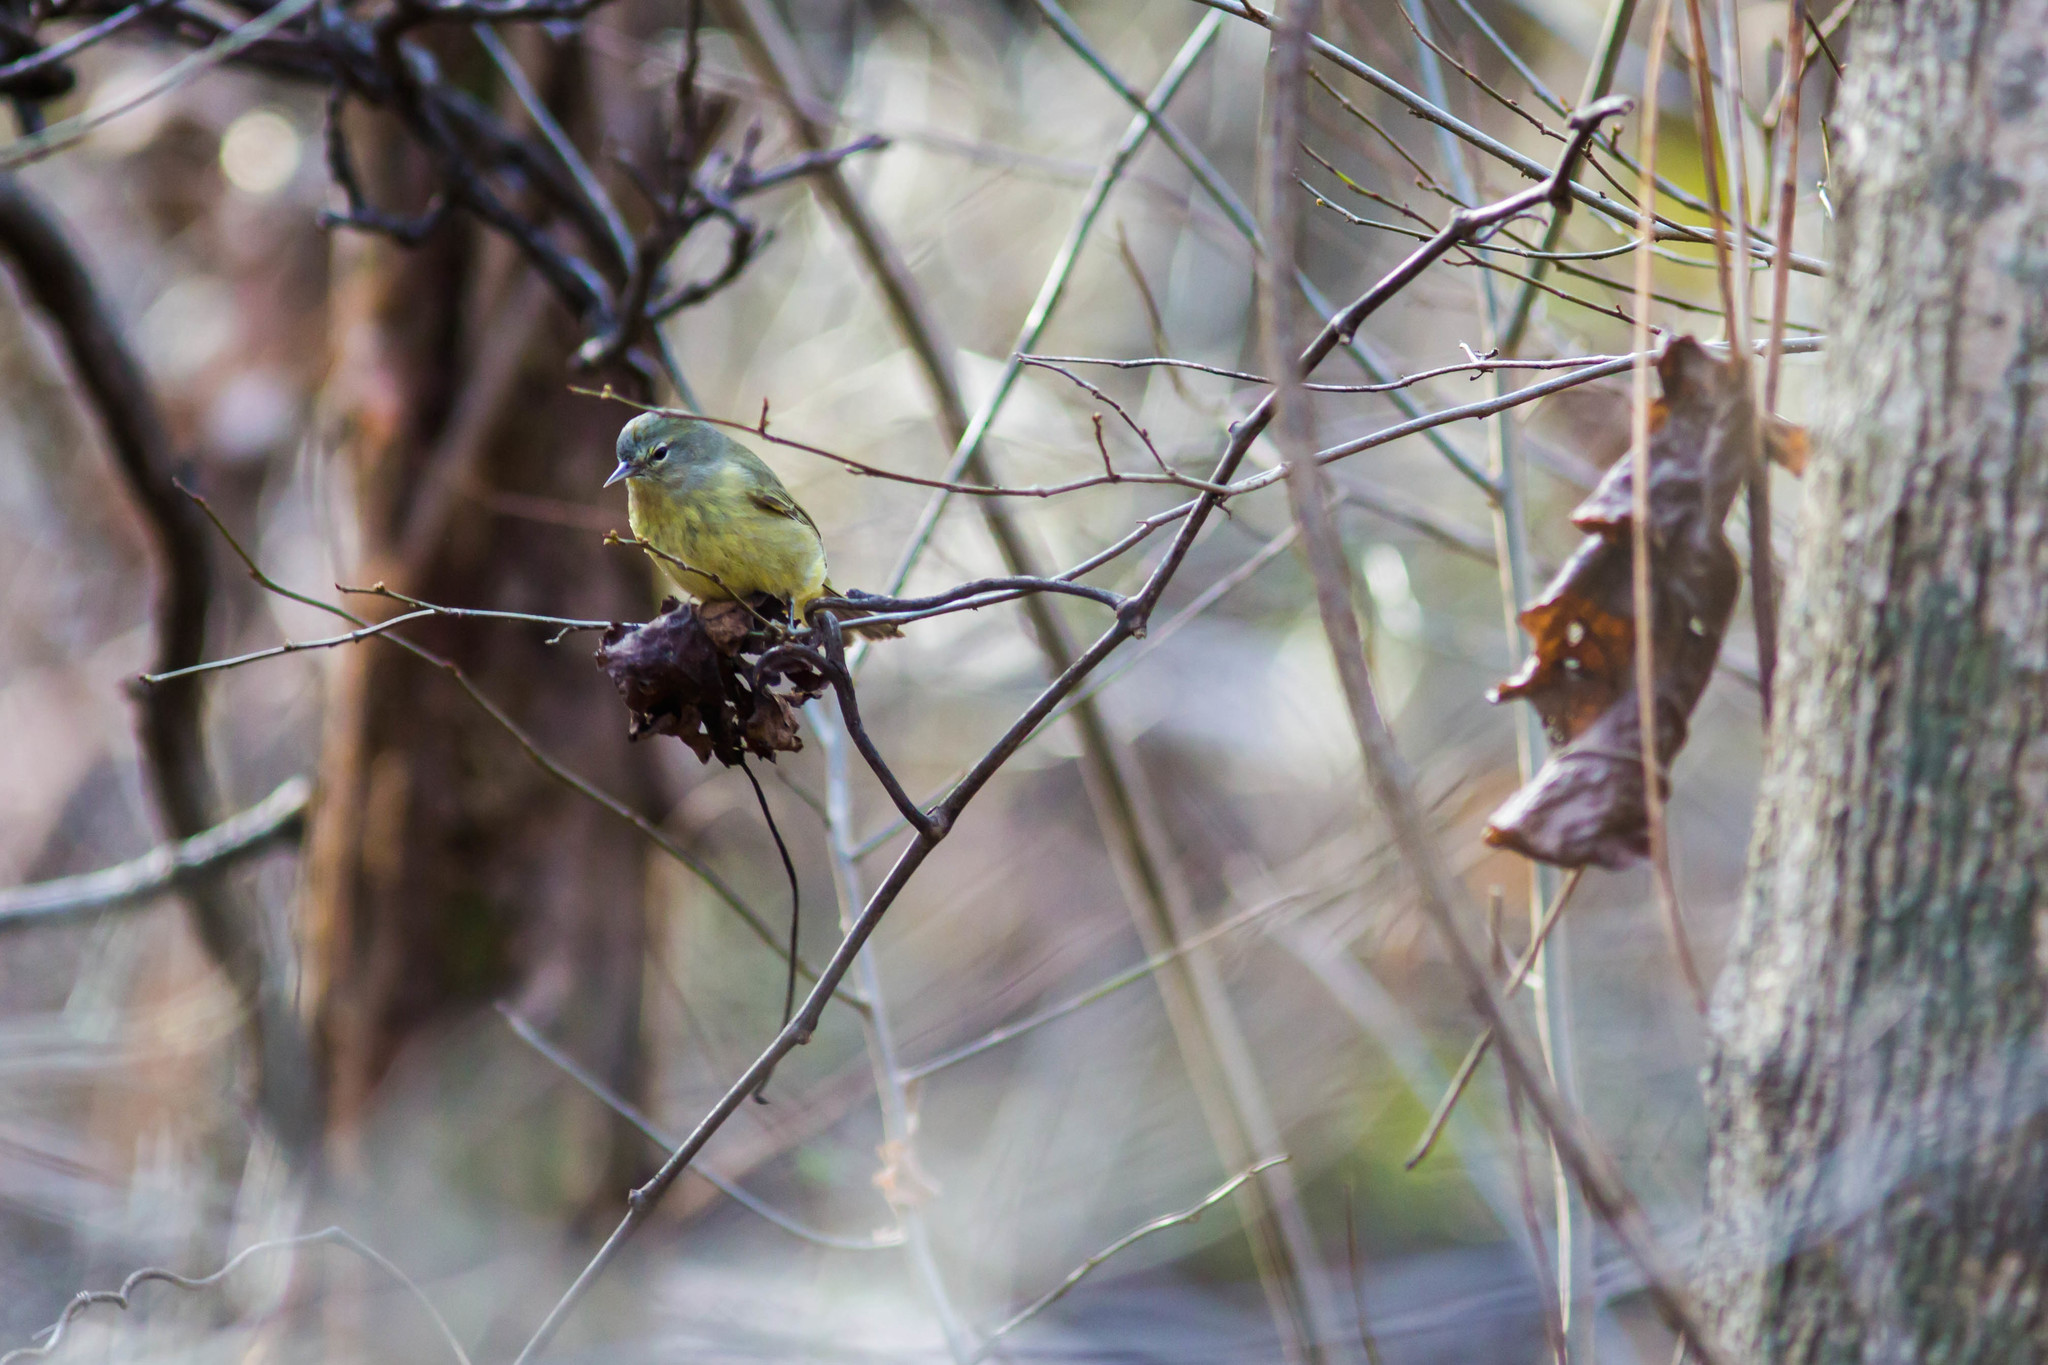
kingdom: Animalia
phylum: Chordata
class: Aves
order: Passeriformes
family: Parulidae
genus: Leiothlypis
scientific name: Leiothlypis celata
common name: Orange-crowned warbler
